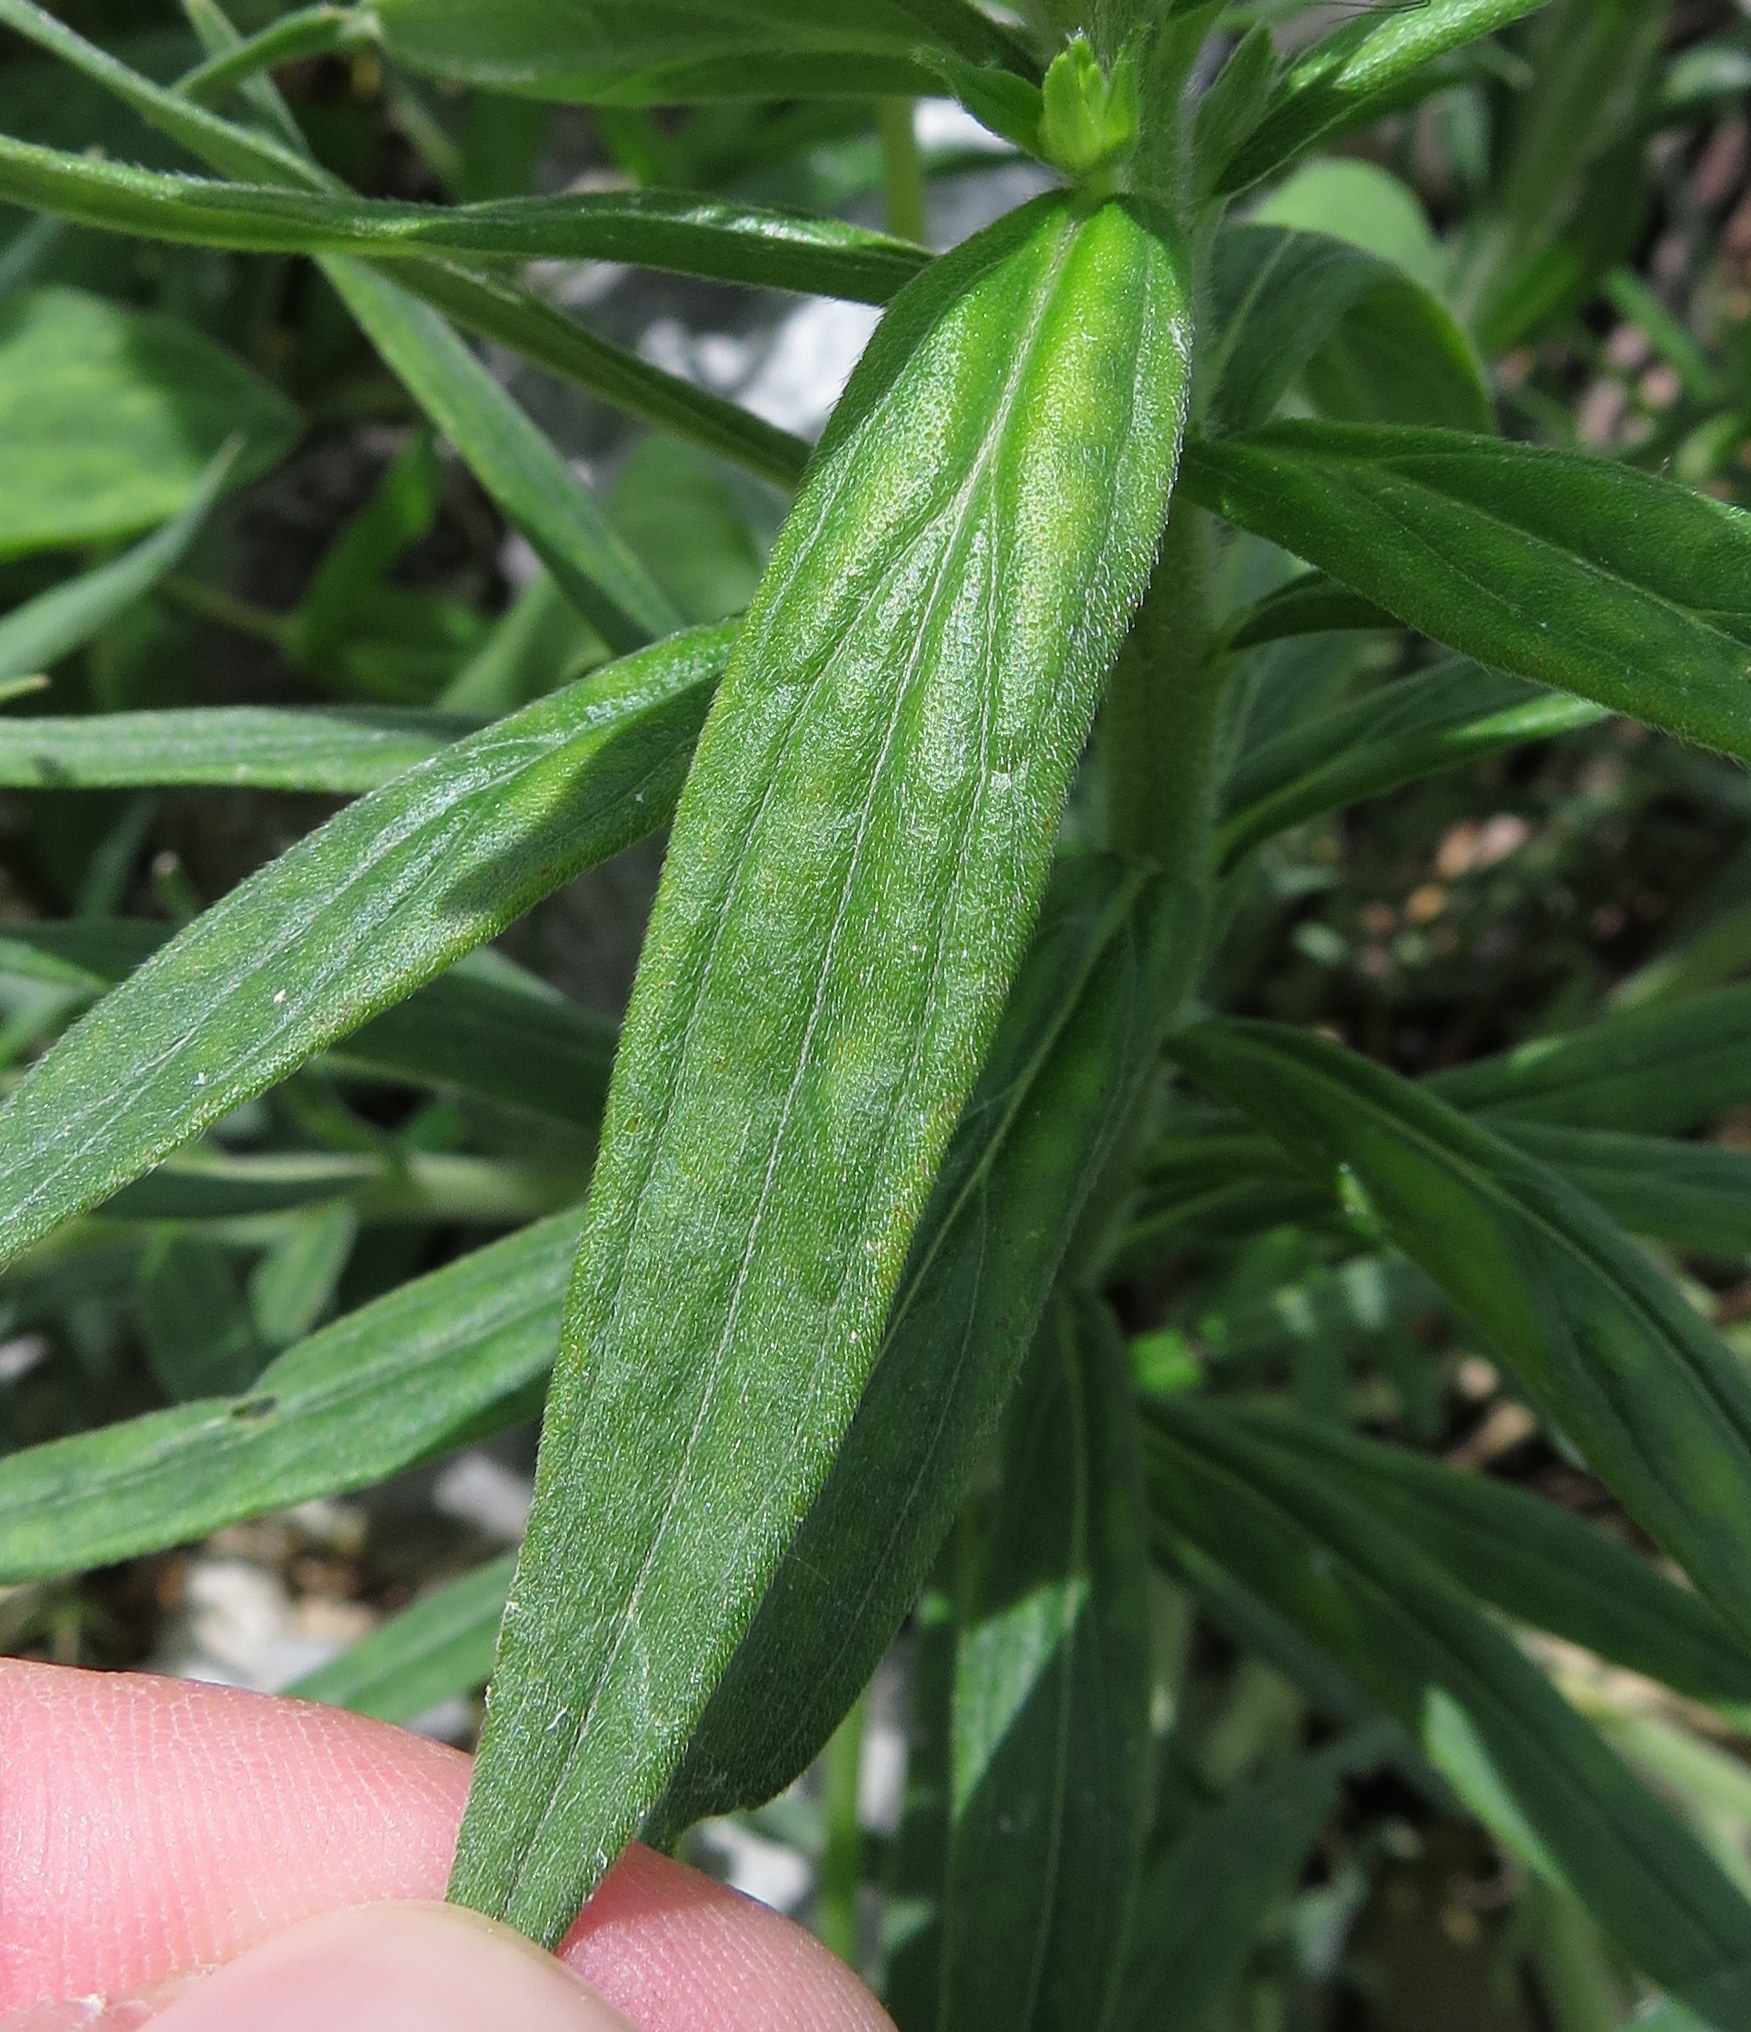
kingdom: Plantae
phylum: Tracheophyta
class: Magnoliopsida
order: Boraginales
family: Boraginaceae
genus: Lithospermum
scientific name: Lithospermum officinale
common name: Common gromwell
